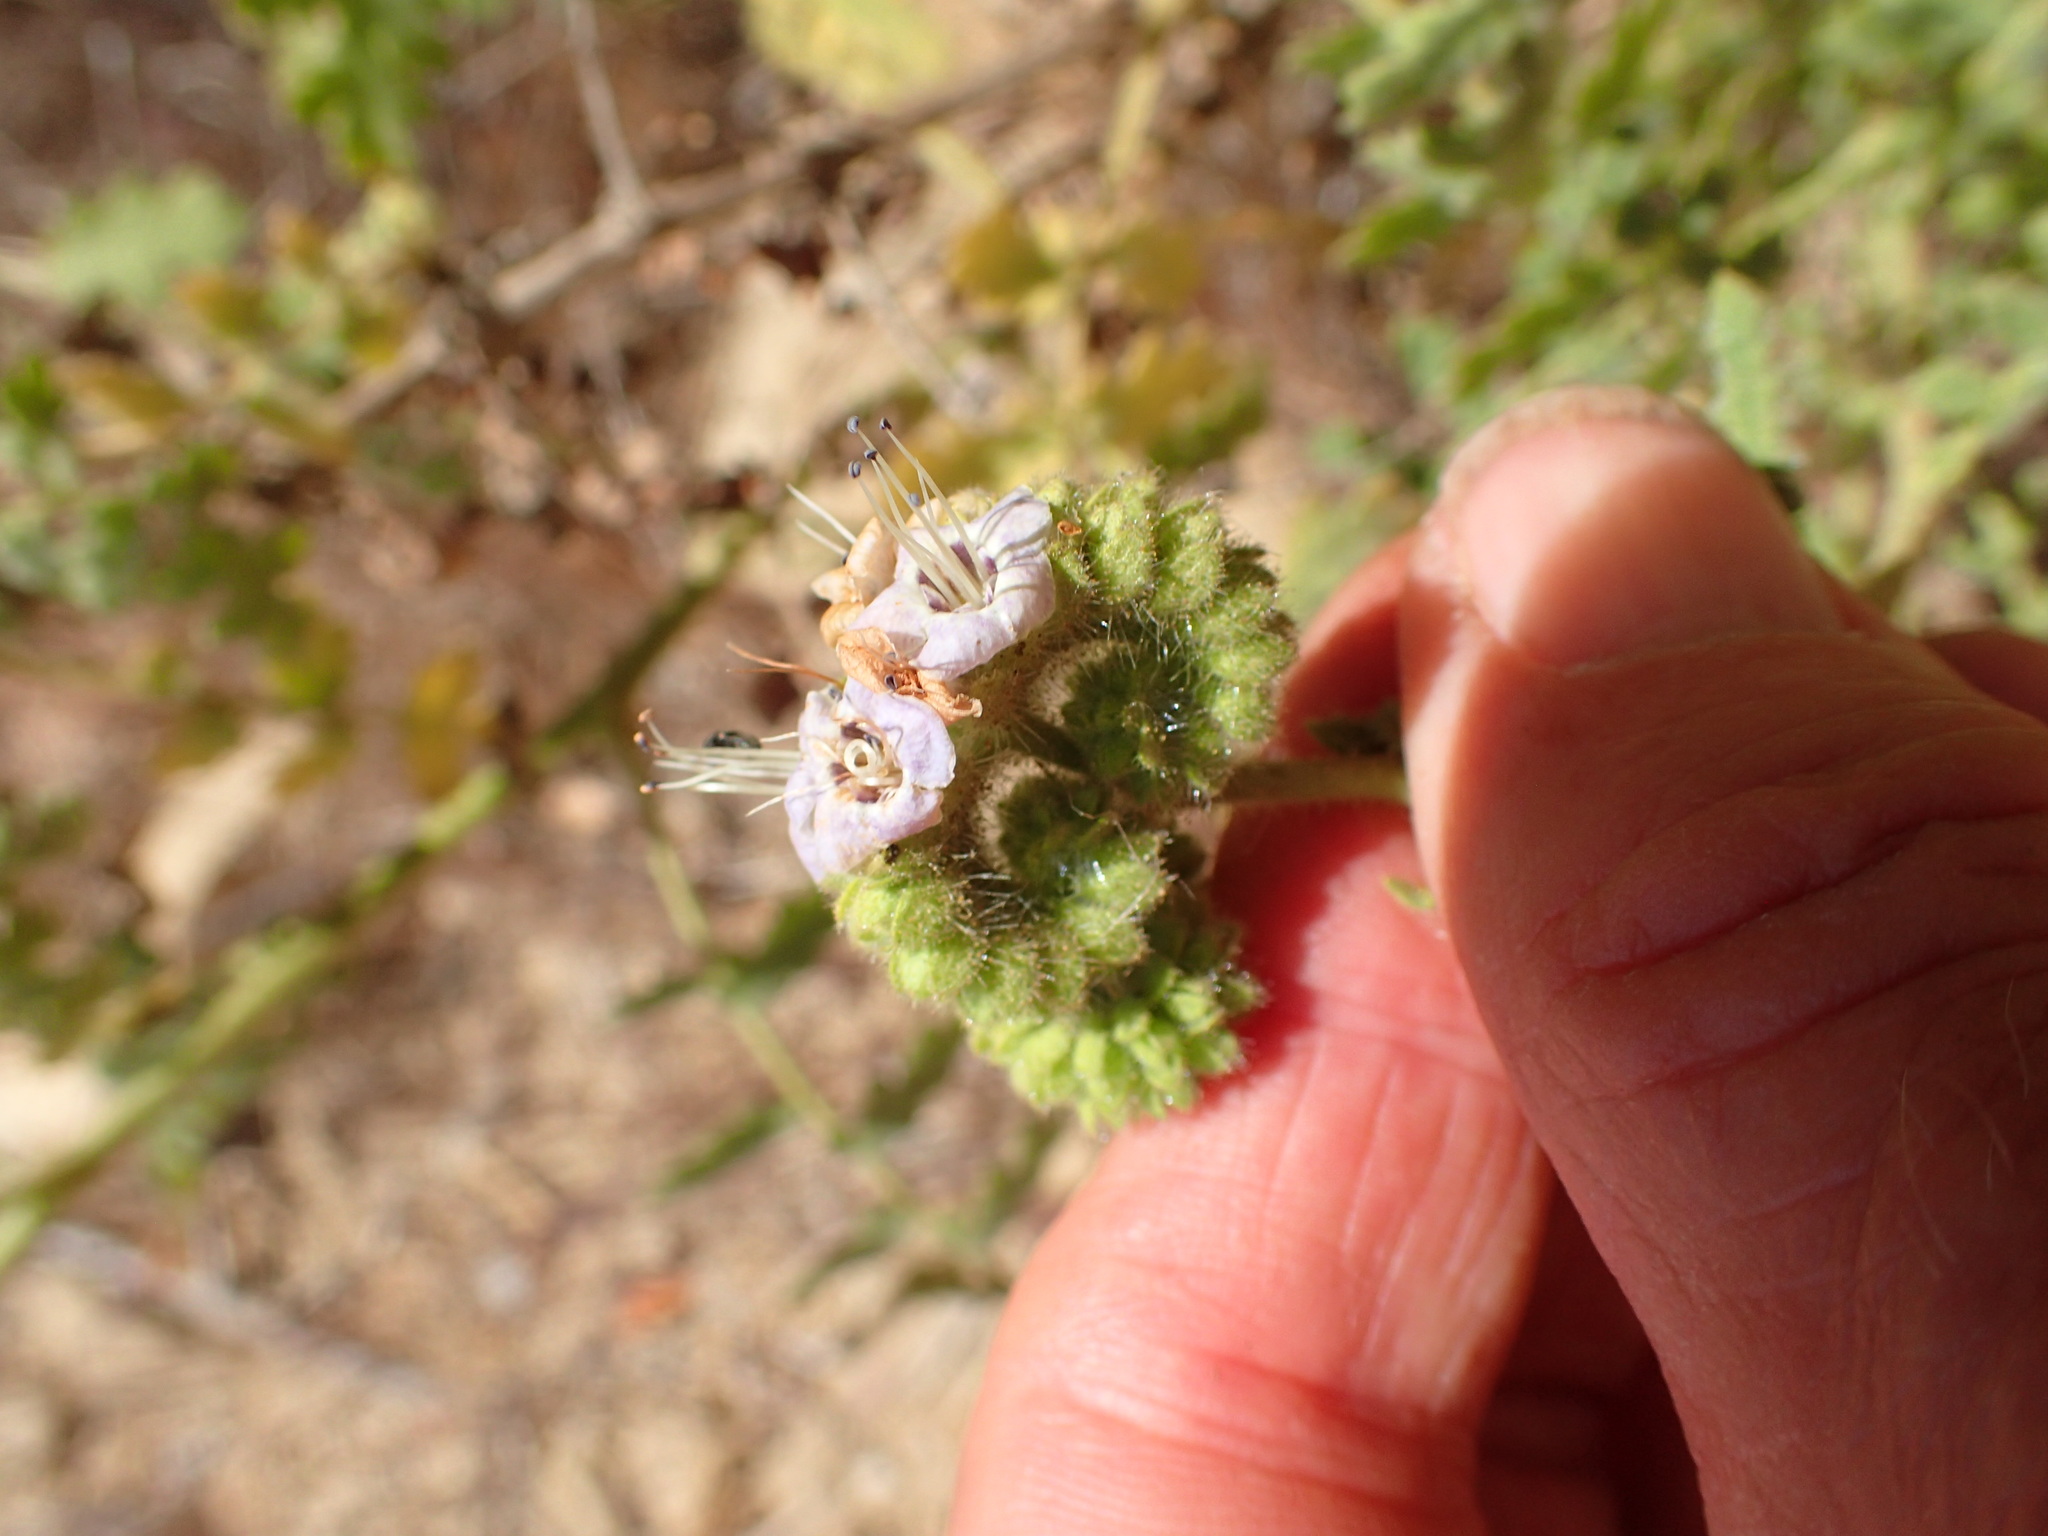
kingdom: Plantae
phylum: Tracheophyta
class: Magnoliopsida
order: Boraginales
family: Hydrophyllaceae
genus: Phacelia
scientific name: Phacelia ramosissima
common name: Branching phacelia
